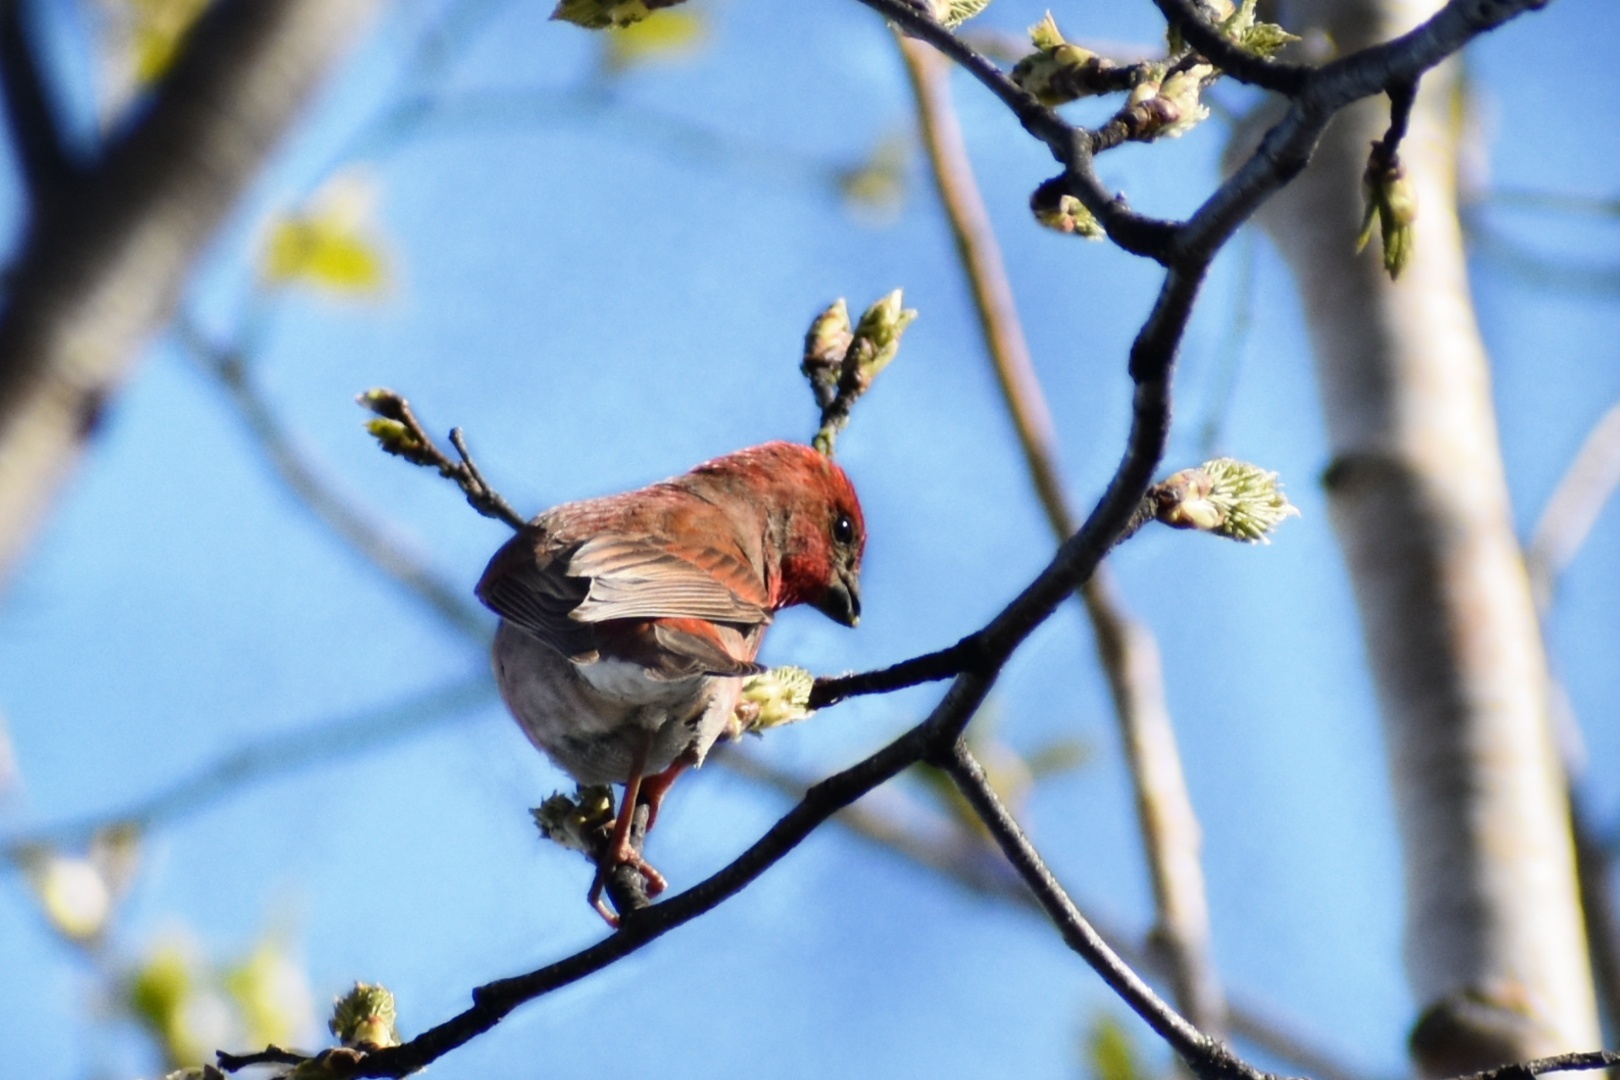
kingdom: Animalia
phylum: Chordata
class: Aves
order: Passeriformes
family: Fringillidae
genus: Carpodacus
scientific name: Carpodacus erythrinus
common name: Common rosefinch
